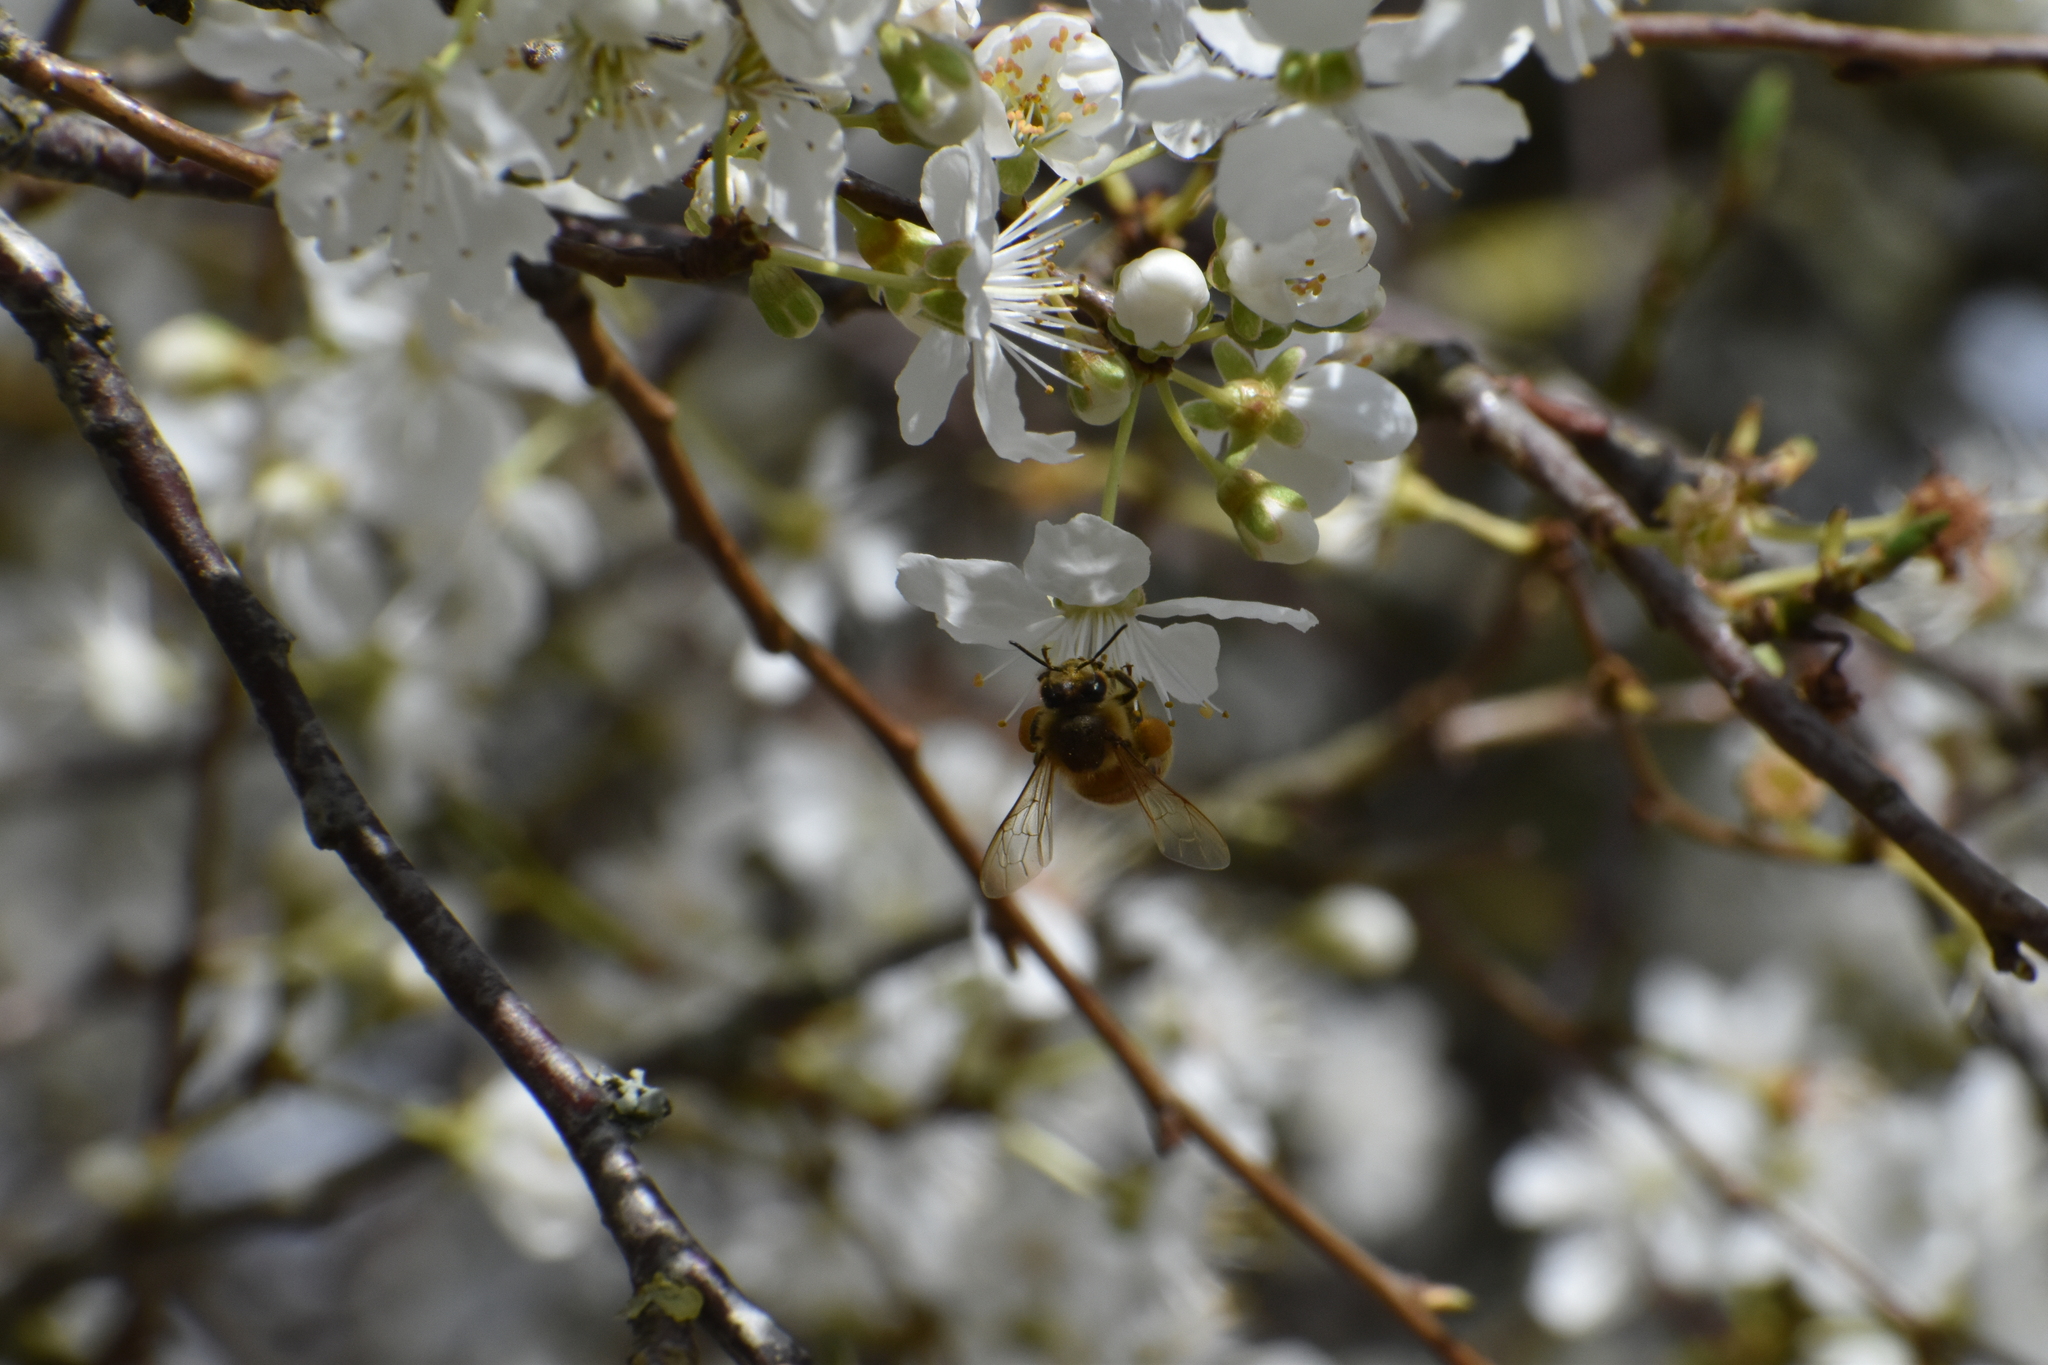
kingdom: Animalia
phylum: Arthropoda
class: Insecta
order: Hymenoptera
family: Apidae
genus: Apis
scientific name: Apis mellifera
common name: Honey bee
